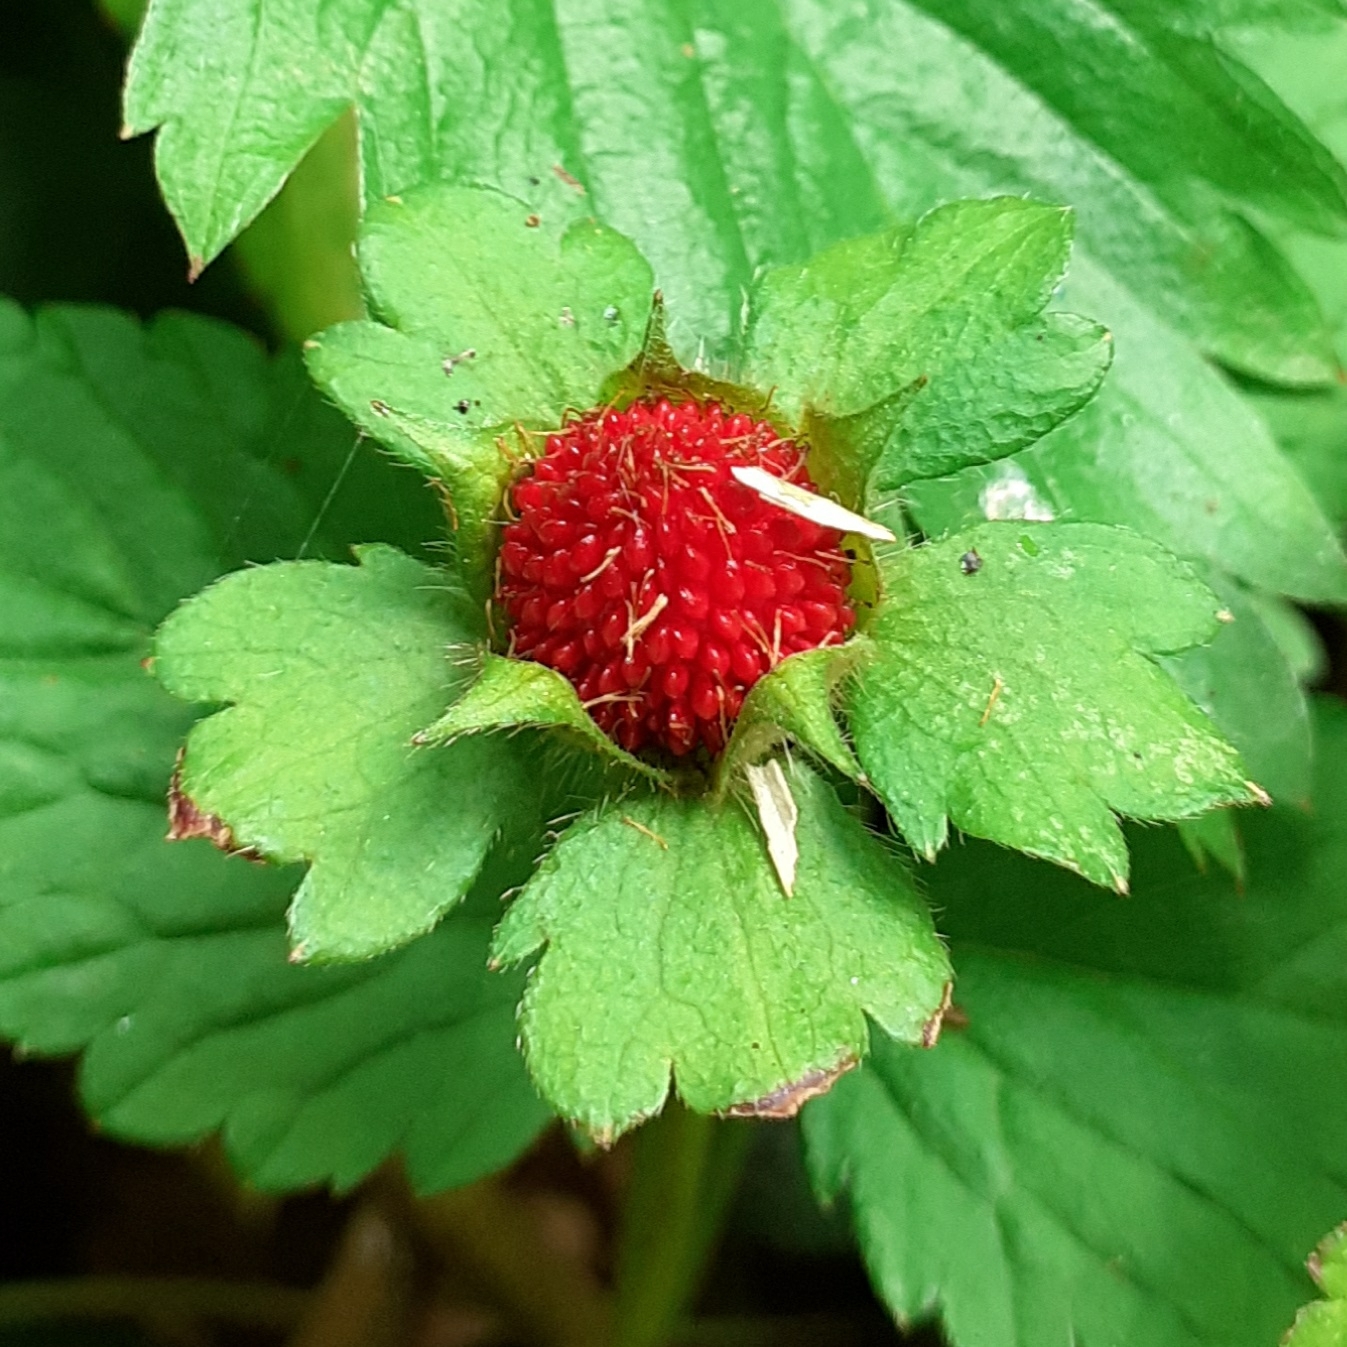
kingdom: Plantae
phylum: Tracheophyta
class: Magnoliopsida
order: Rosales
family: Rosaceae
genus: Potentilla
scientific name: Potentilla indica
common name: Yellow-flowered strawberry
